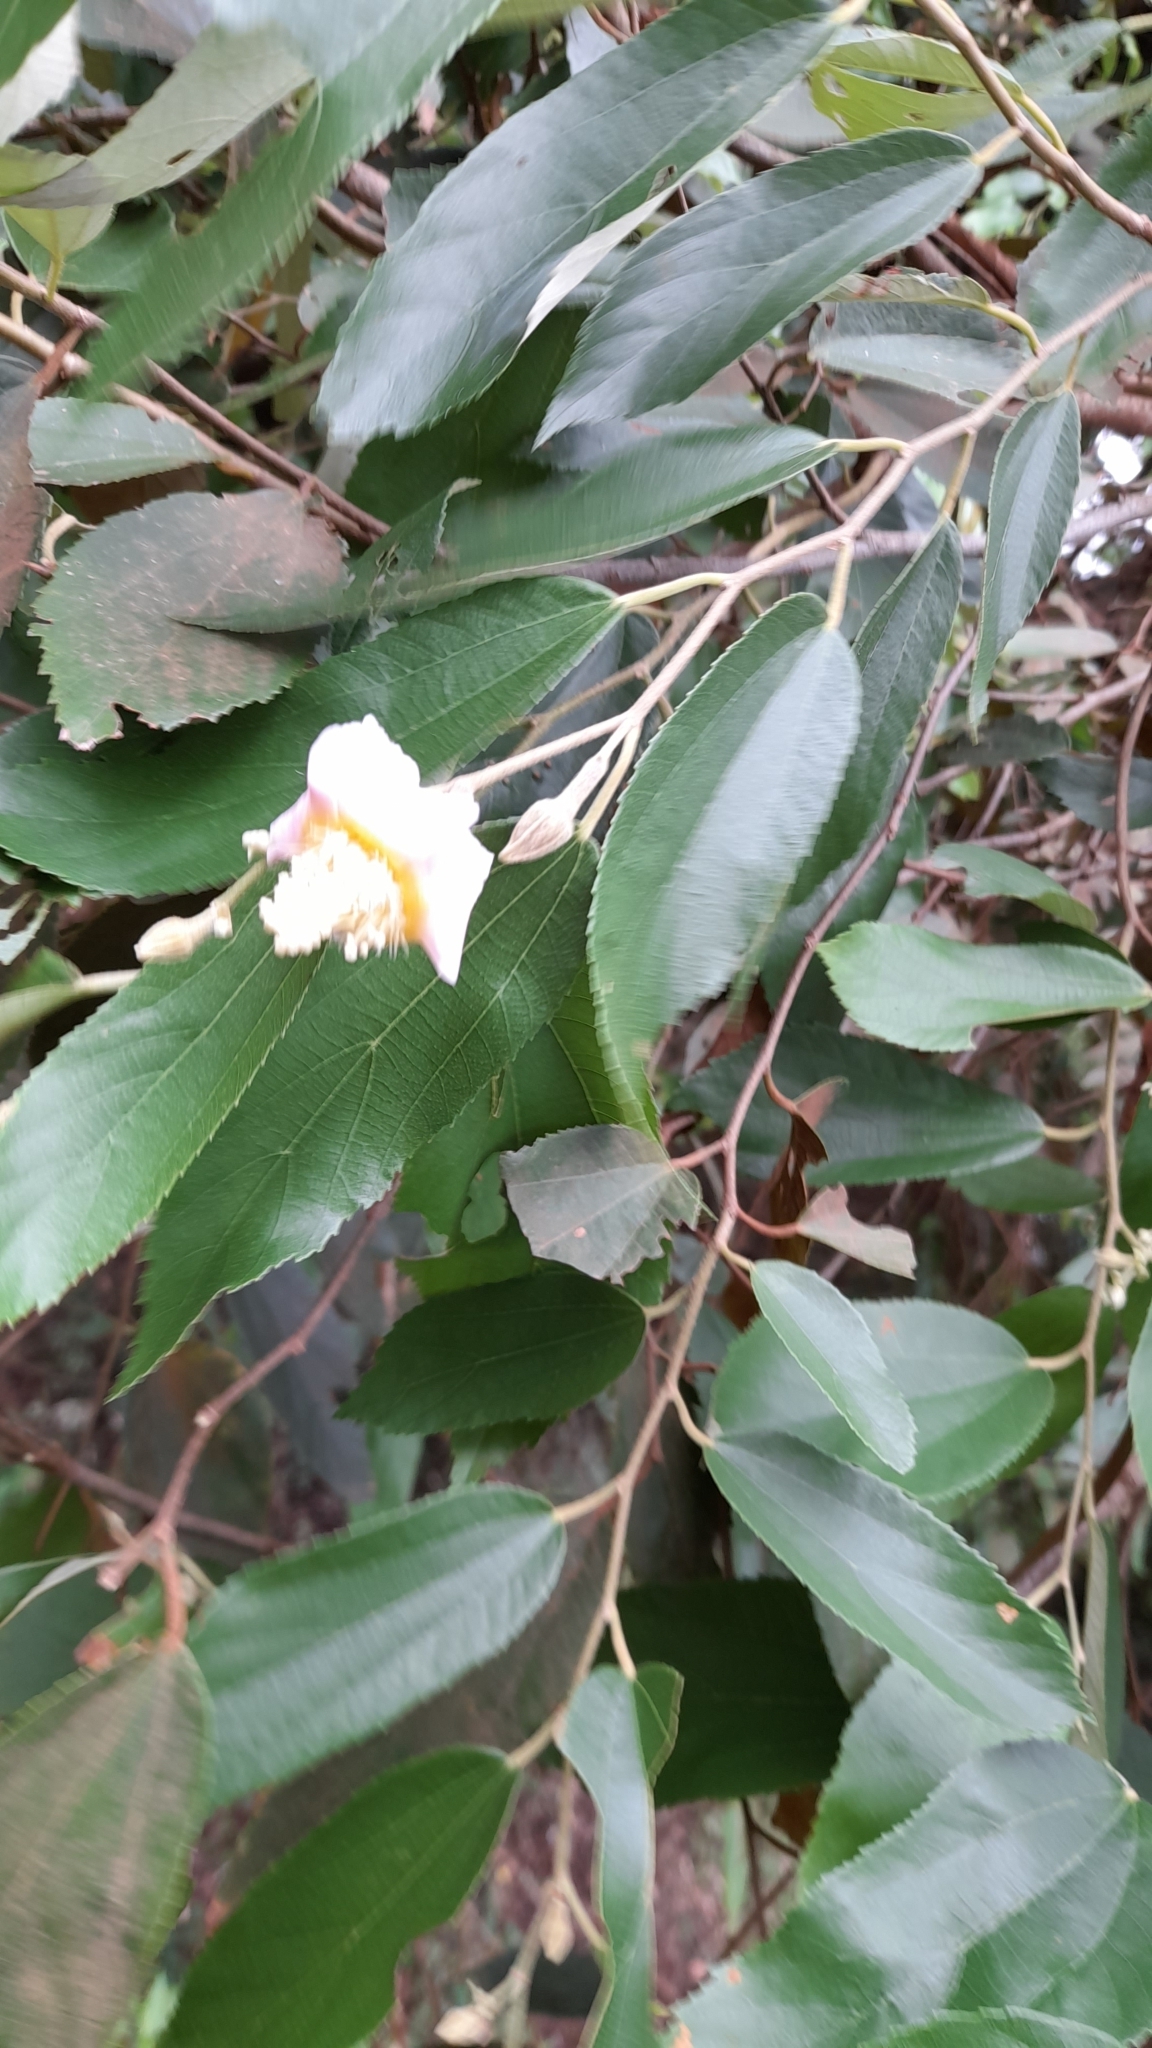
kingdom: Plantae
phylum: Tracheophyta
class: Magnoliopsida
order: Malvales
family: Malvaceae
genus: Luehea
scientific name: Luehea divaricata
